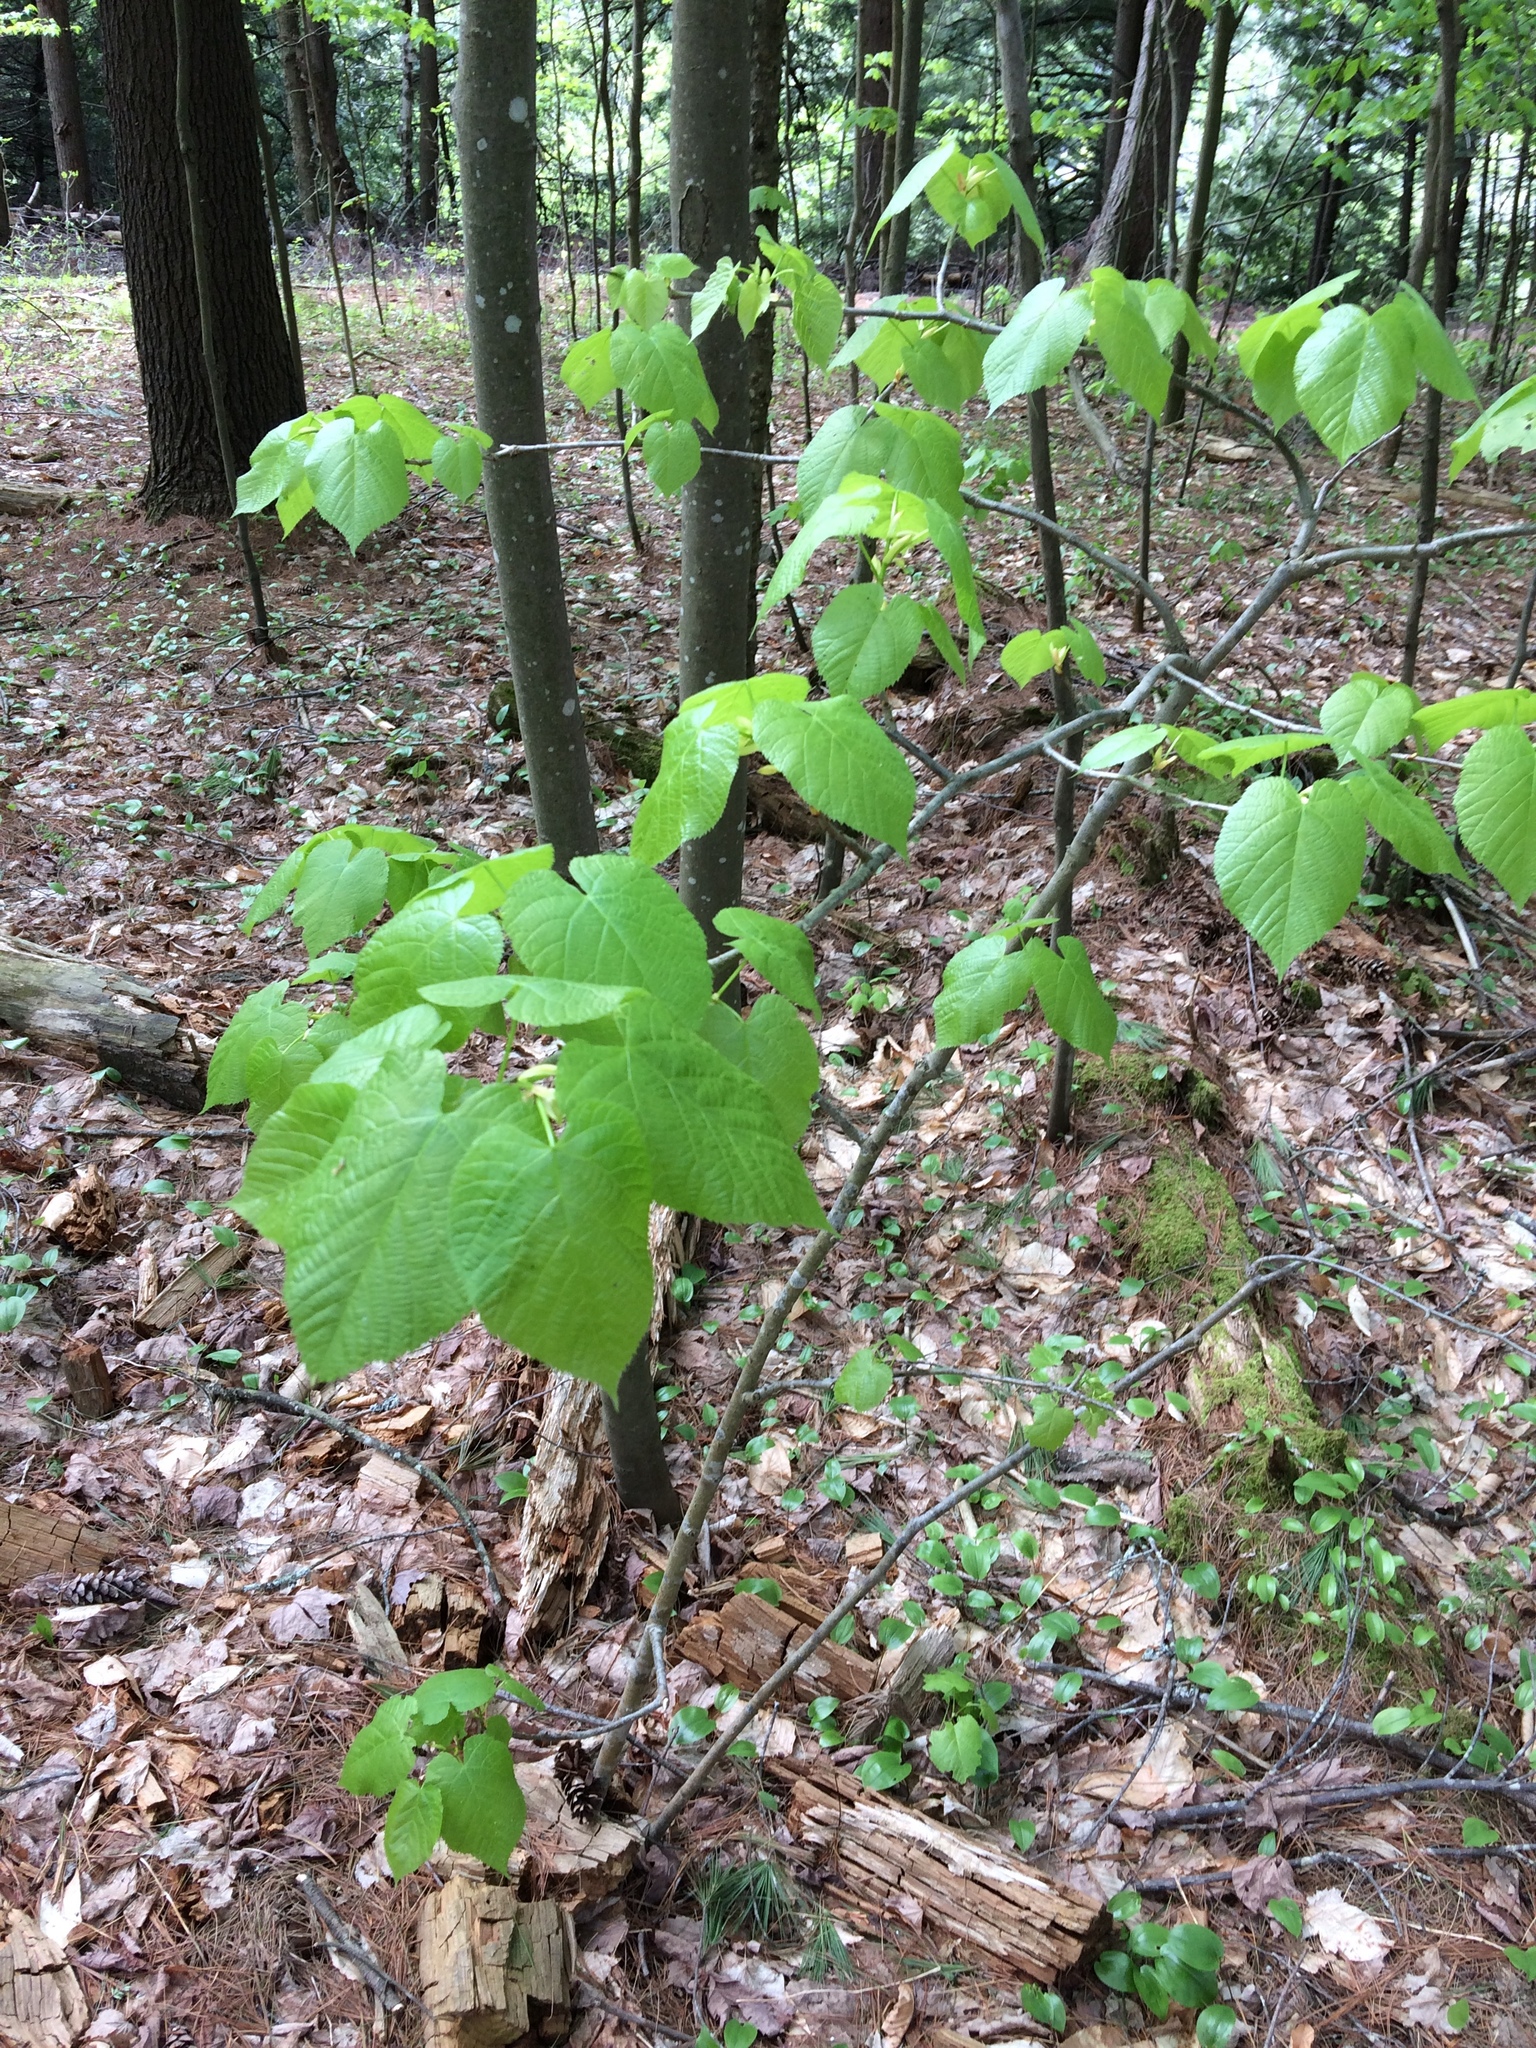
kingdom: Plantae
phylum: Tracheophyta
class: Magnoliopsida
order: Malvales
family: Malvaceae
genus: Tilia
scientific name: Tilia americana
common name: Basswood
